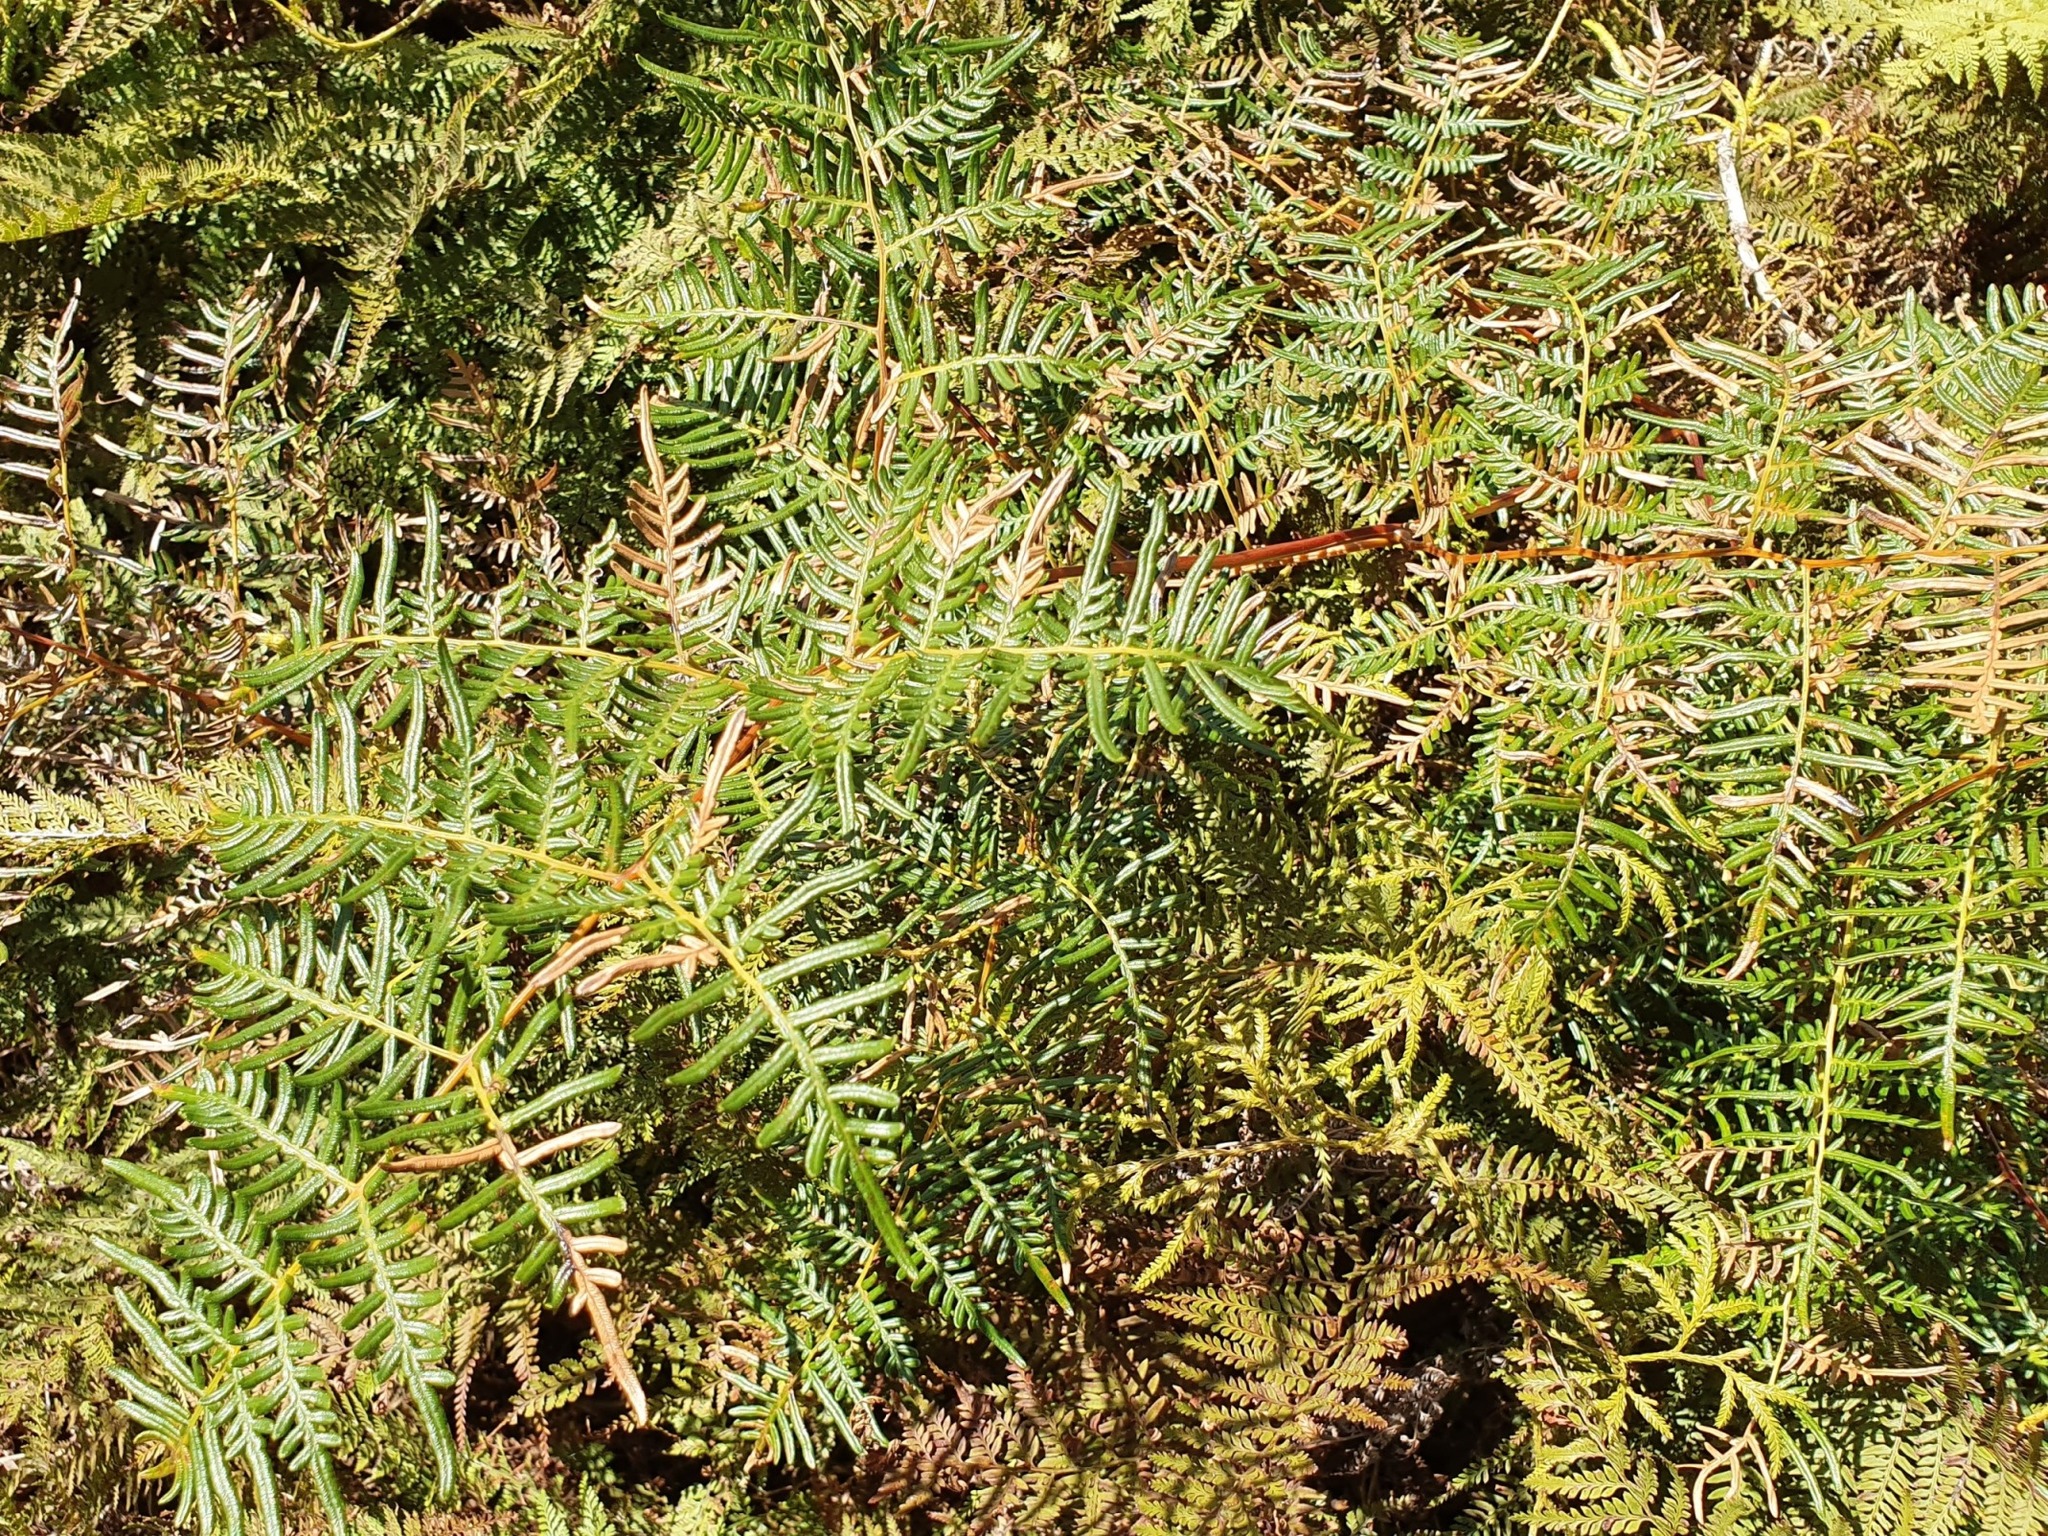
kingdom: Plantae
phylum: Tracheophyta
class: Polypodiopsida
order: Polypodiales
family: Dennstaedtiaceae
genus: Pteridium
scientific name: Pteridium esculentum
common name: Bracken fern
